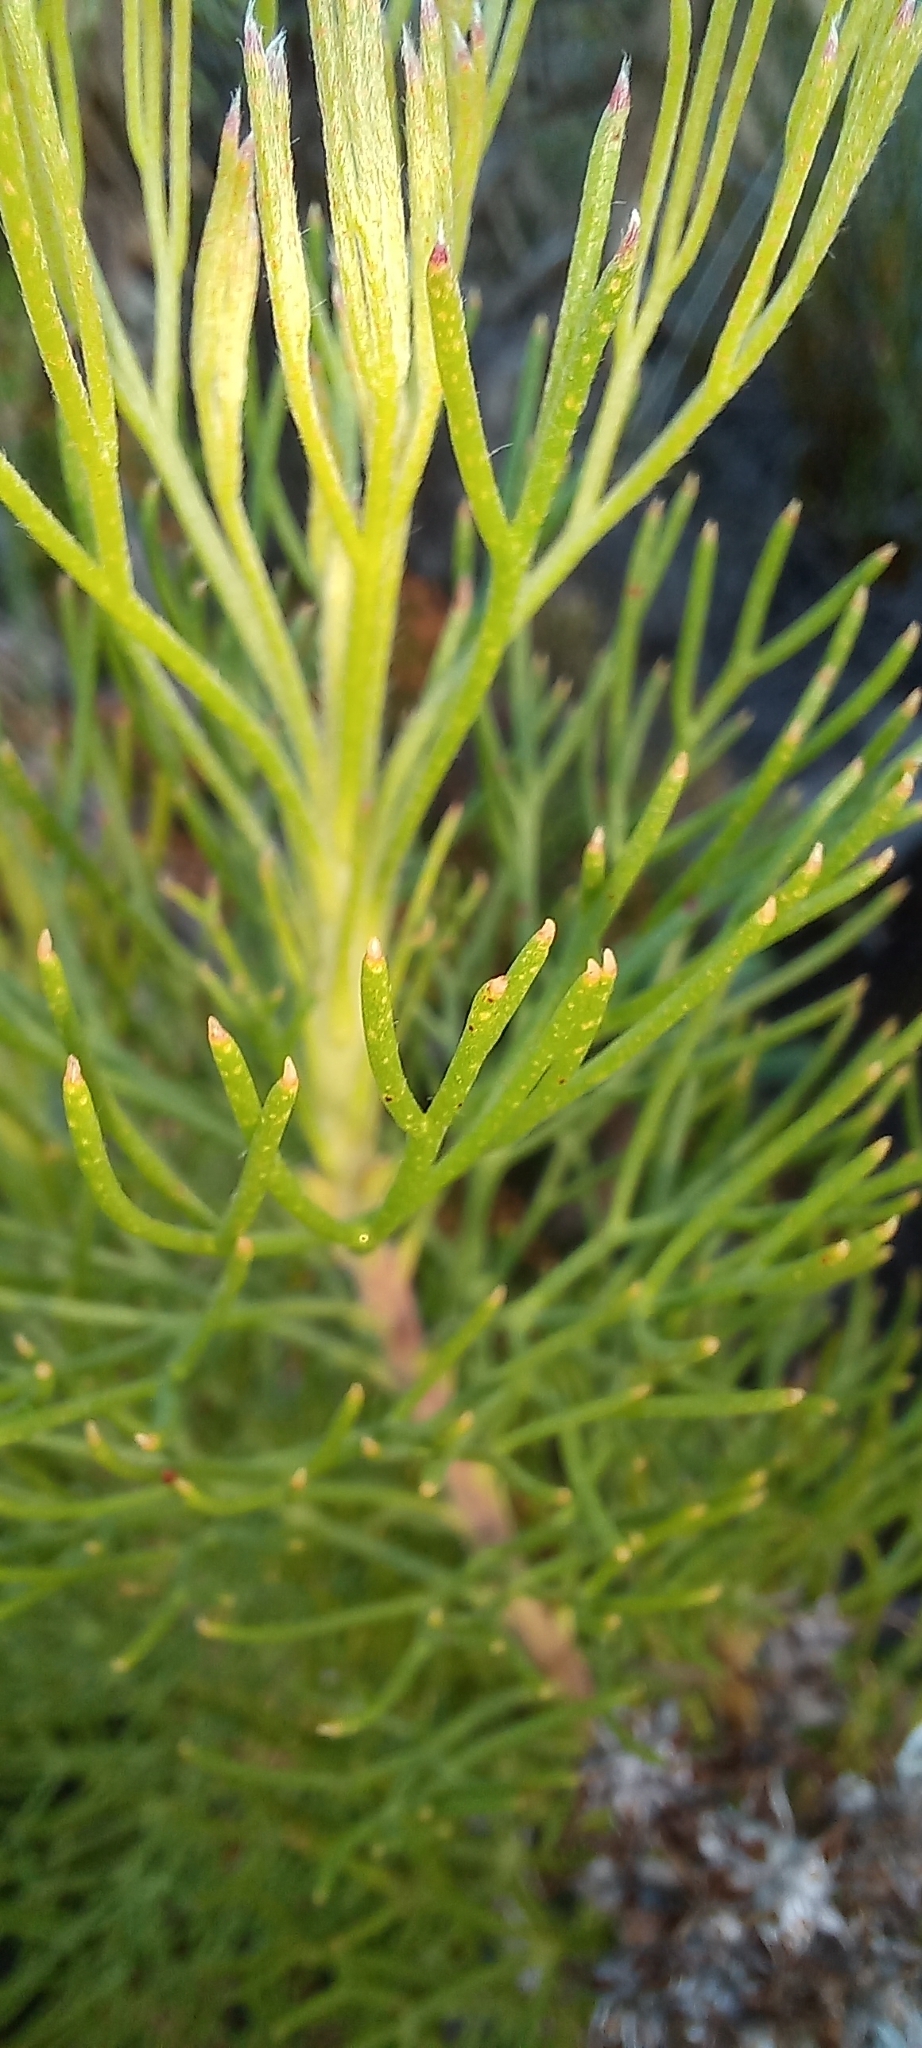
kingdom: Plantae
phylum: Tracheophyta
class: Magnoliopsida
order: Proteales
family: Proteaceae
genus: Serruria
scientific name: Serruria ascendens
